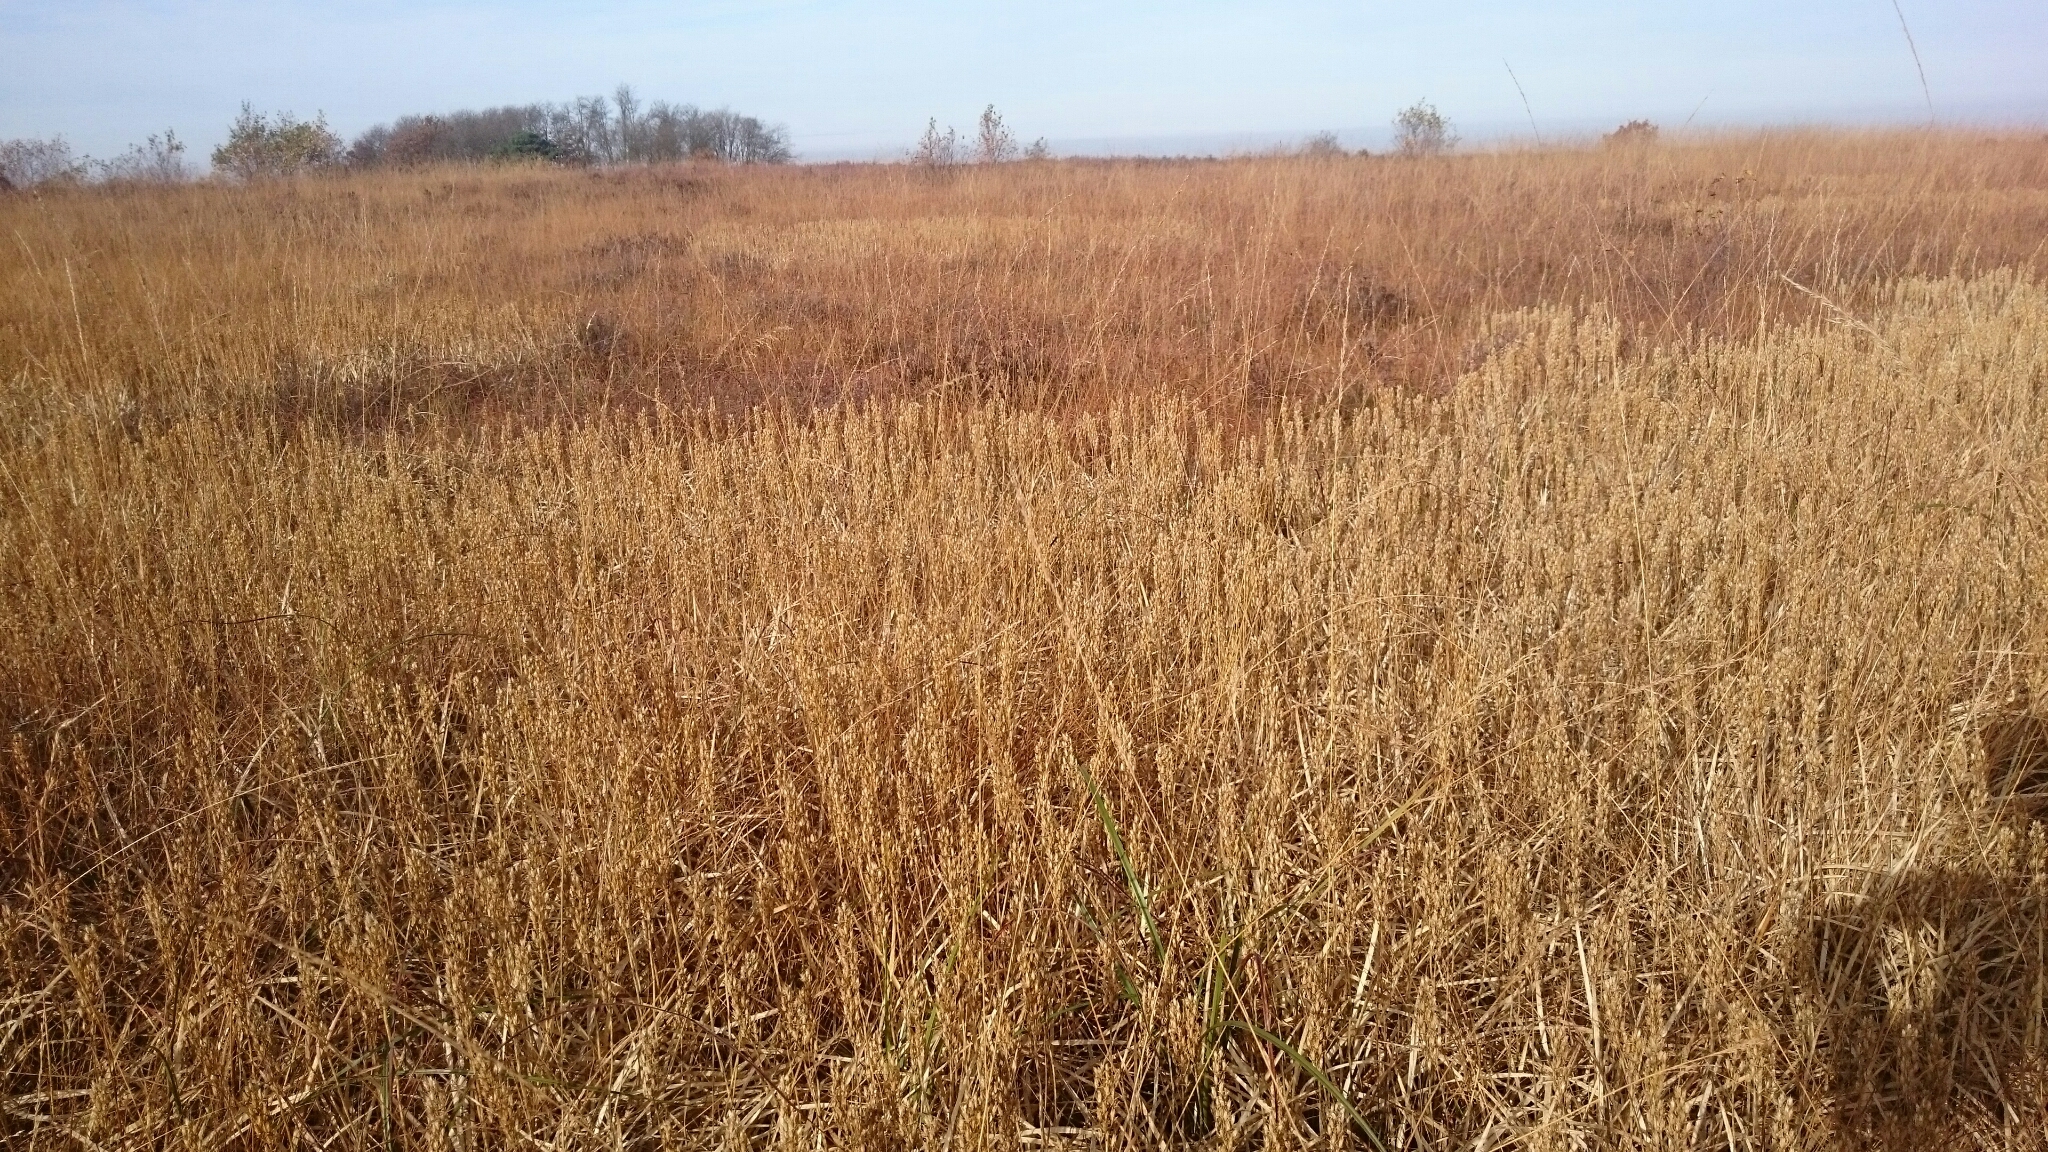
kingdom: Plantae
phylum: Tracheophyta
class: Liliopsida
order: Dioscoreales
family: Nartheciaceae
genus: Narthecium
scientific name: Narthecium ossifragum
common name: Bog asphodel
